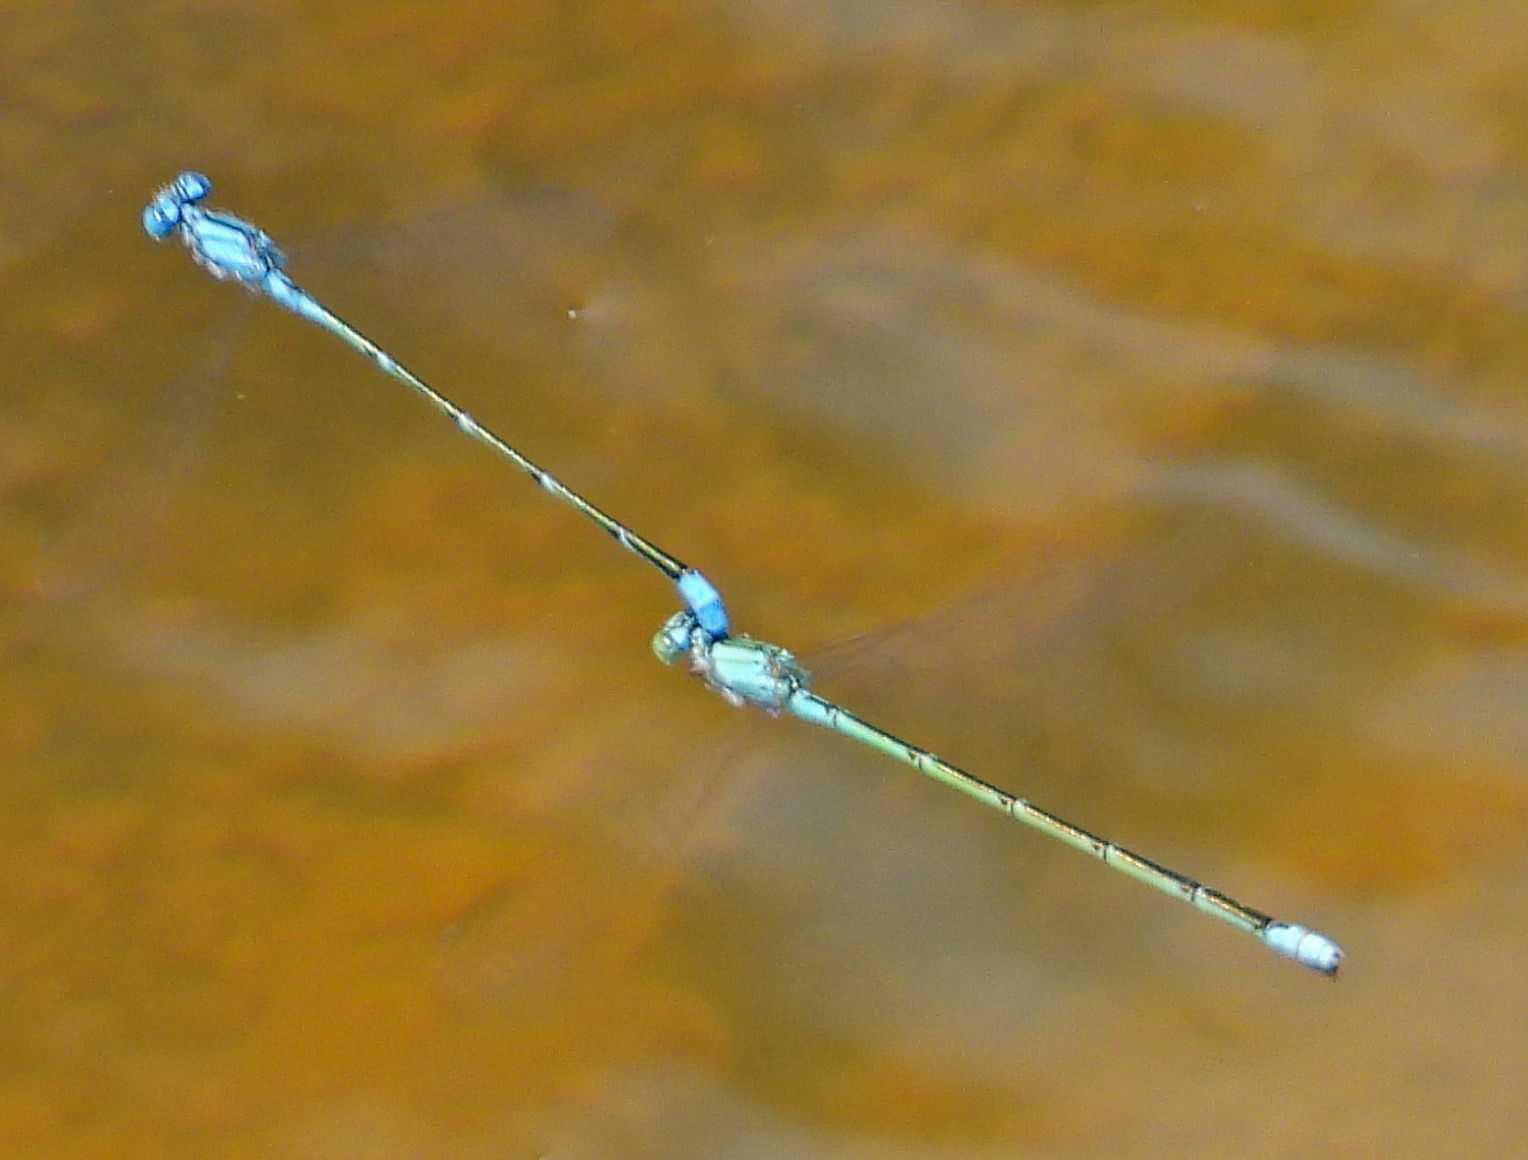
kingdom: Animalia
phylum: Arthropoda
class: Insecta
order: Odonata
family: Coenagrionidae
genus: Enallagma
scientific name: Enallagma traviatum
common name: Slender bluet
